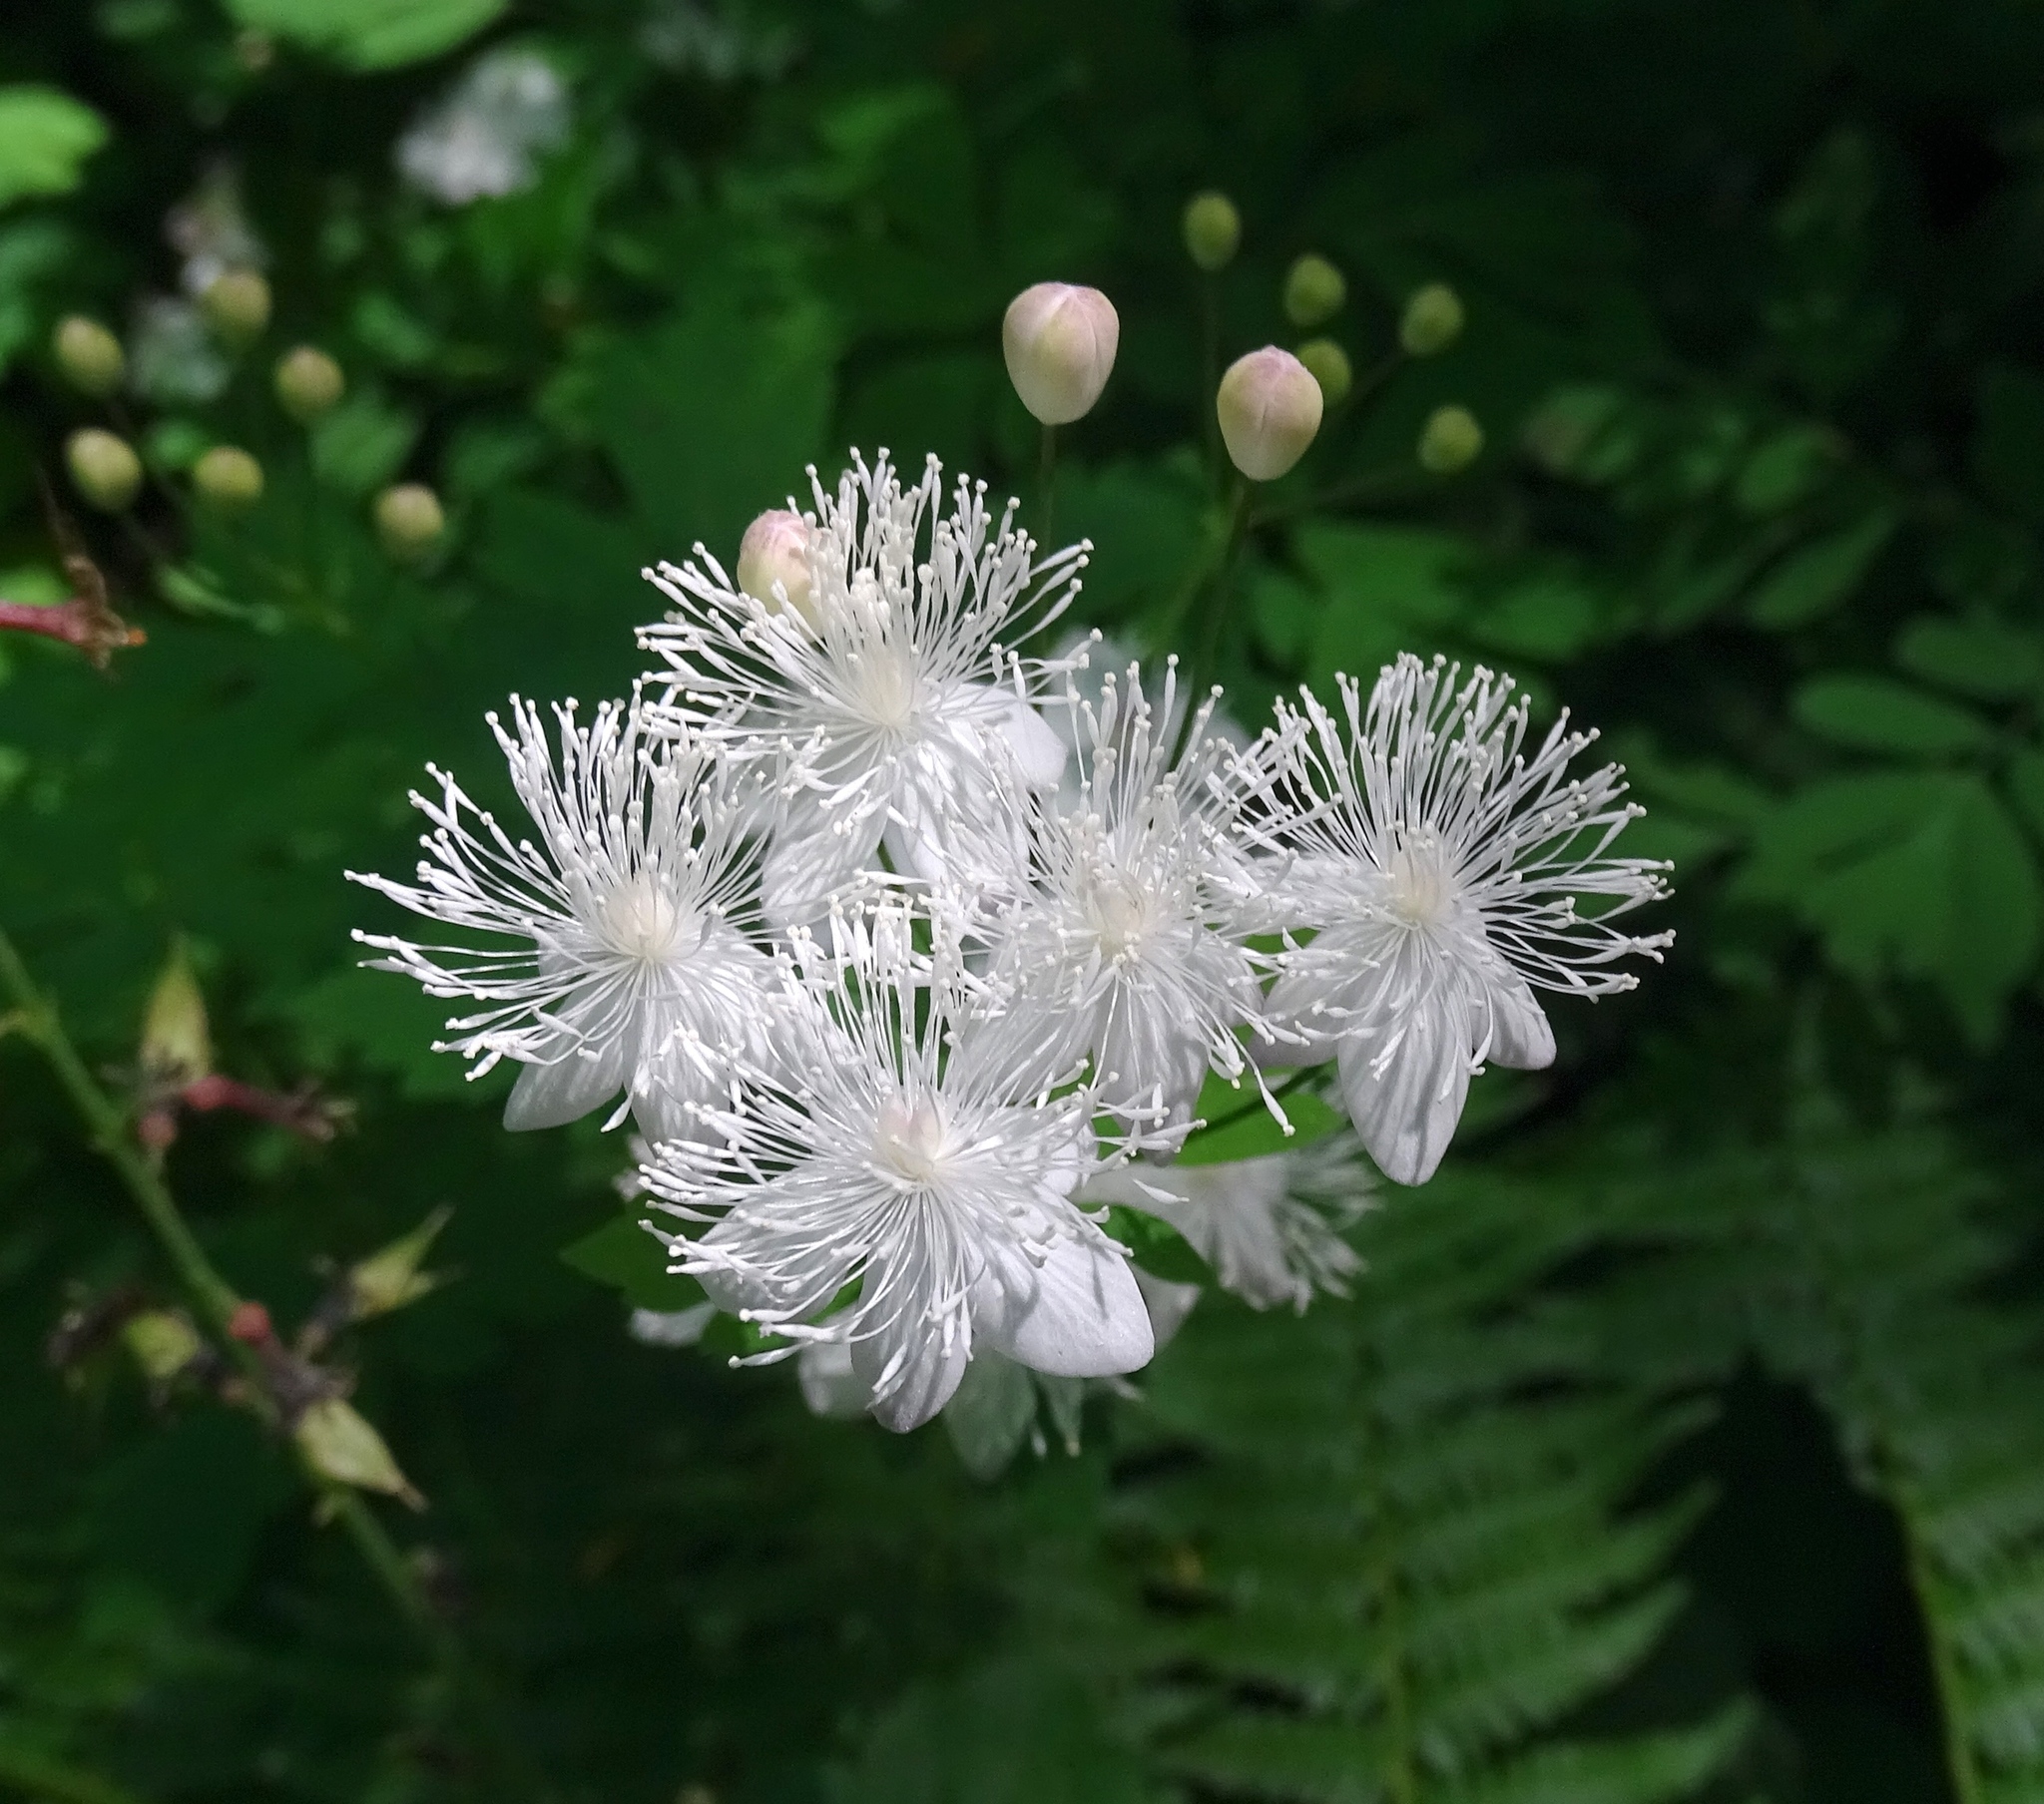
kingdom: Plantae
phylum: Tracheophyta
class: Magnoliopsida
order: Ranunculales
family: Ranunculaceae
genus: Enemion
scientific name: Enemion hallii
